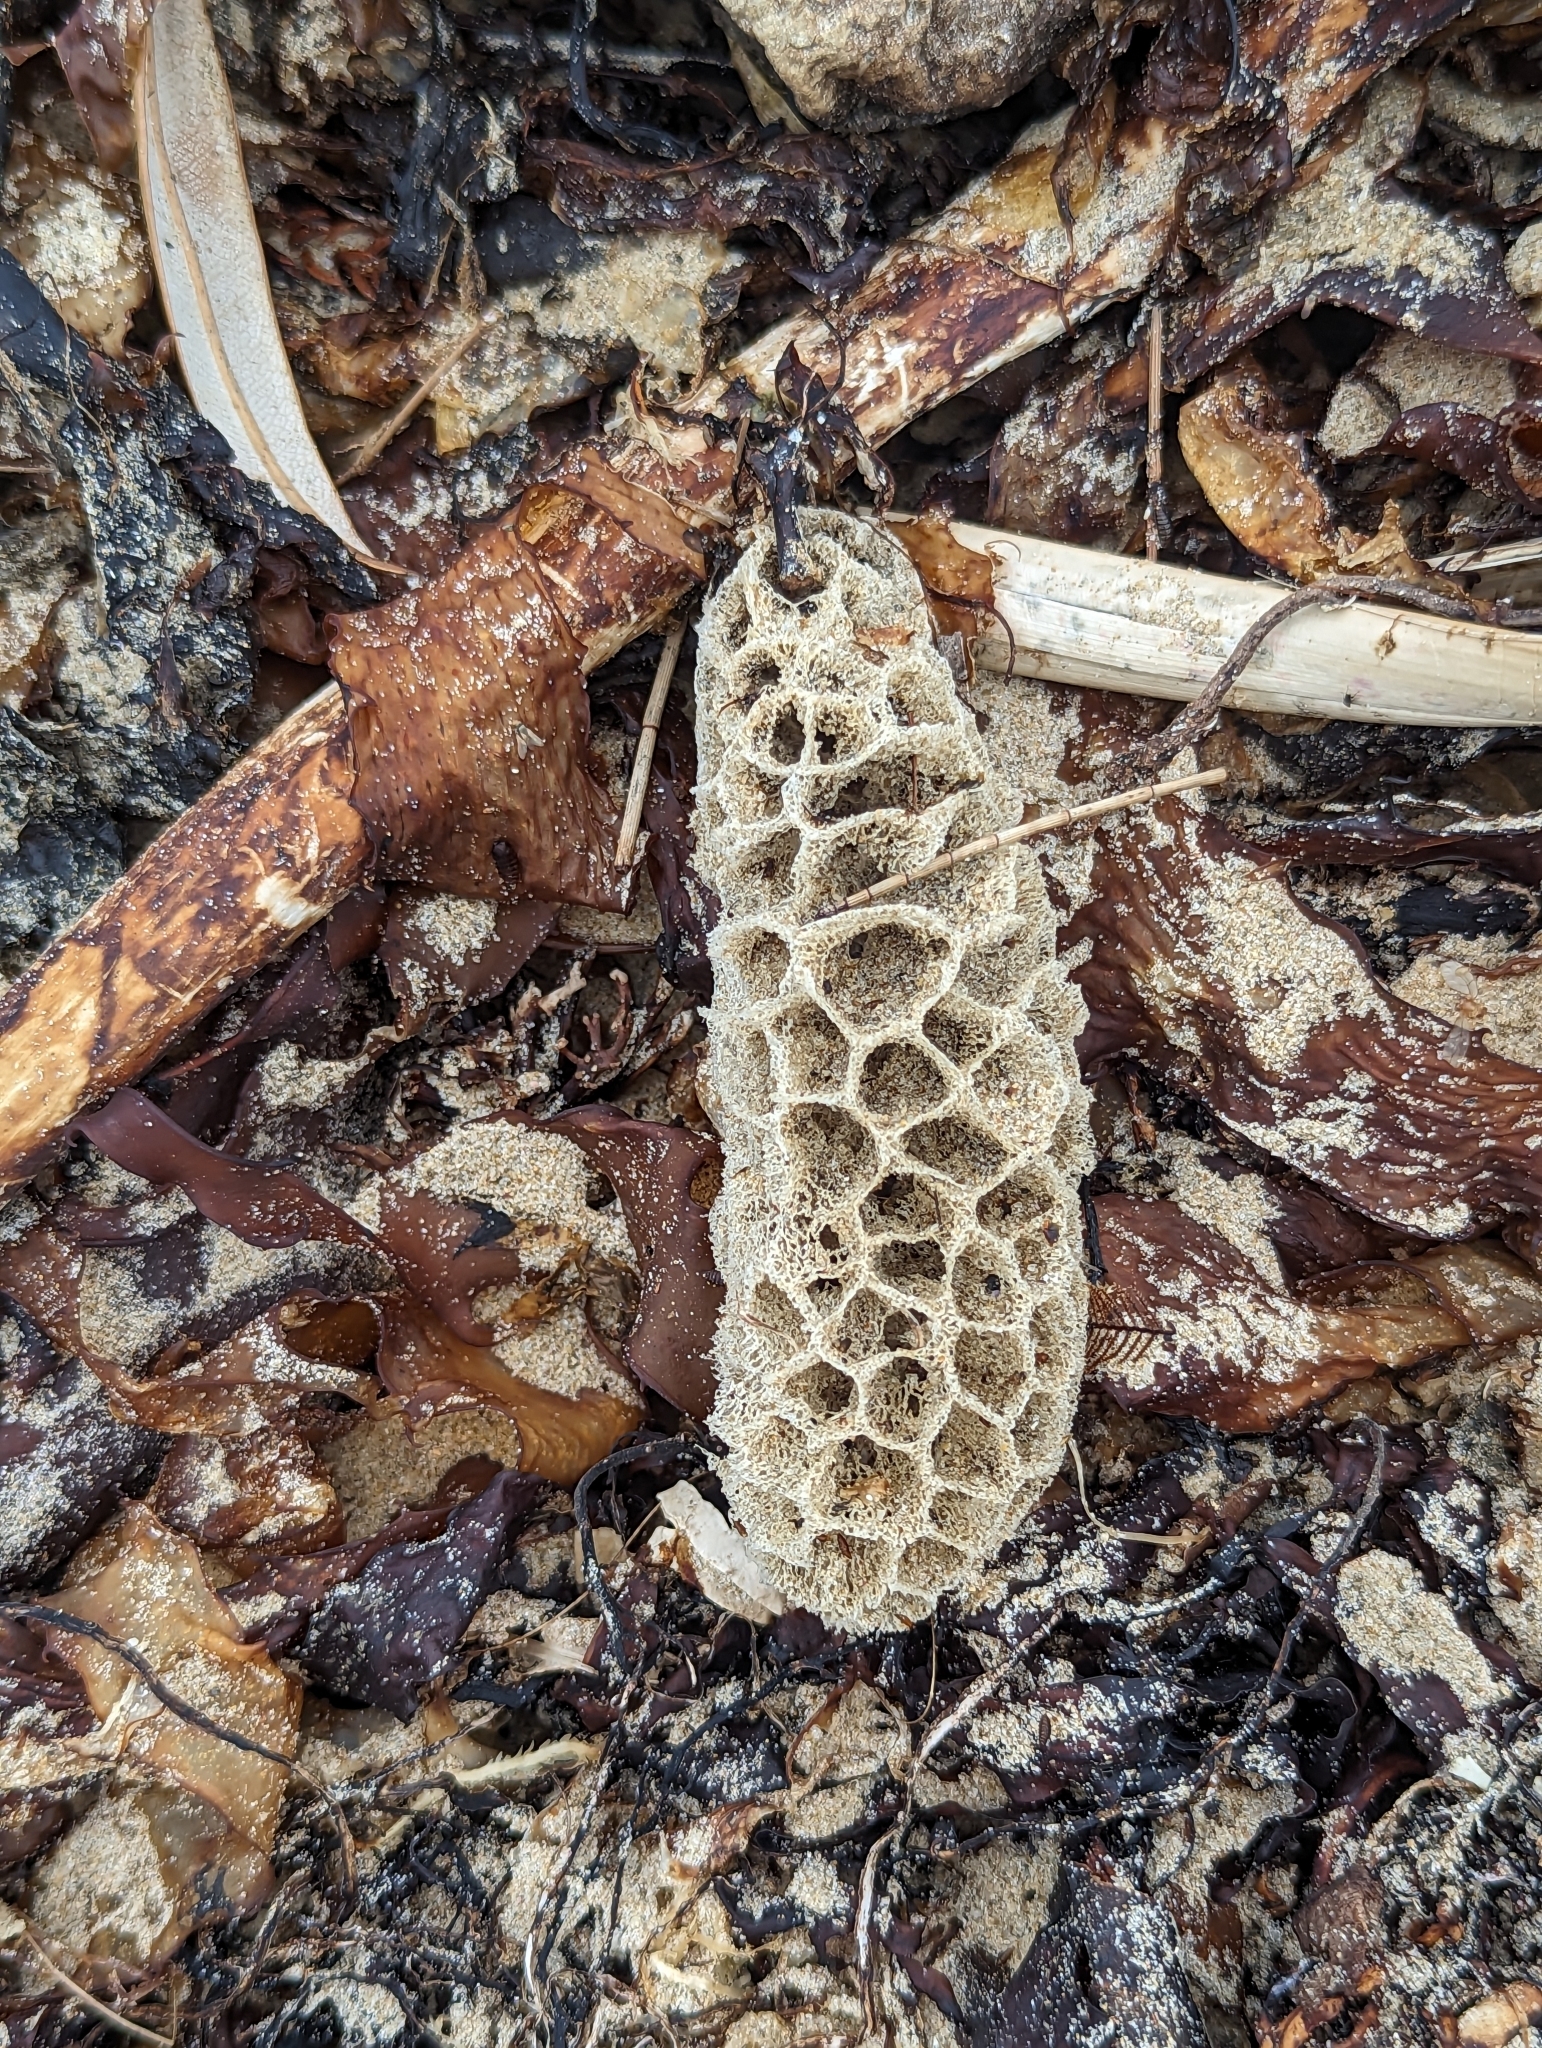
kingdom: Animalia
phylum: Porifera
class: Demospongiae
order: Poecilosclerida
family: Microcionidae
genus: Holopsamma
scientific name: Holopsamma laminaefavosa
